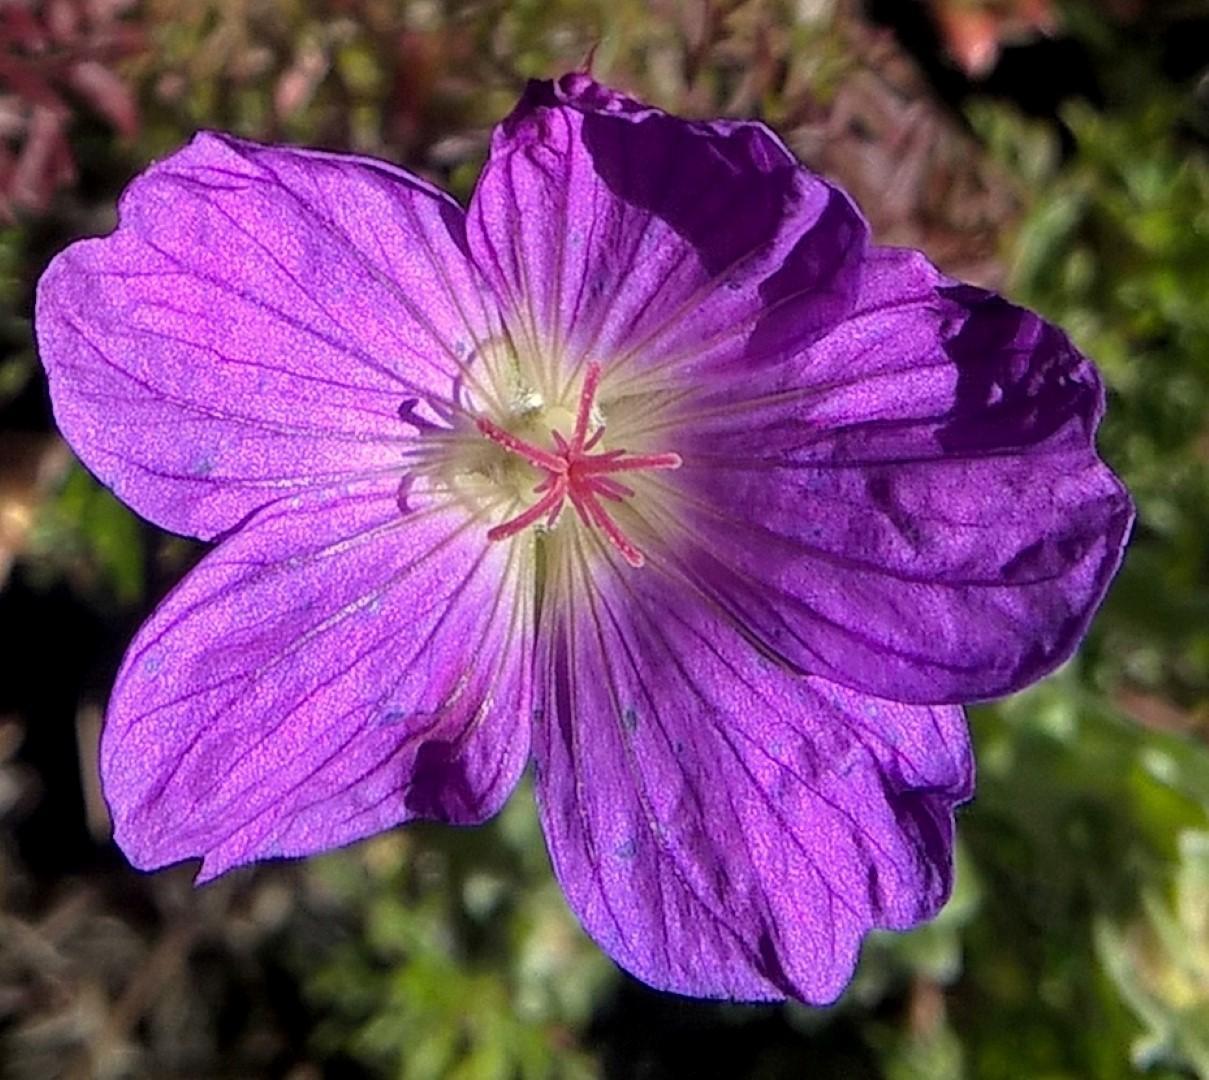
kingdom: Plantae
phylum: Tracheophyta
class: Magnoliopsida
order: Geraniales
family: Geraniaceae
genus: Geranium
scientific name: Geranium incanum
